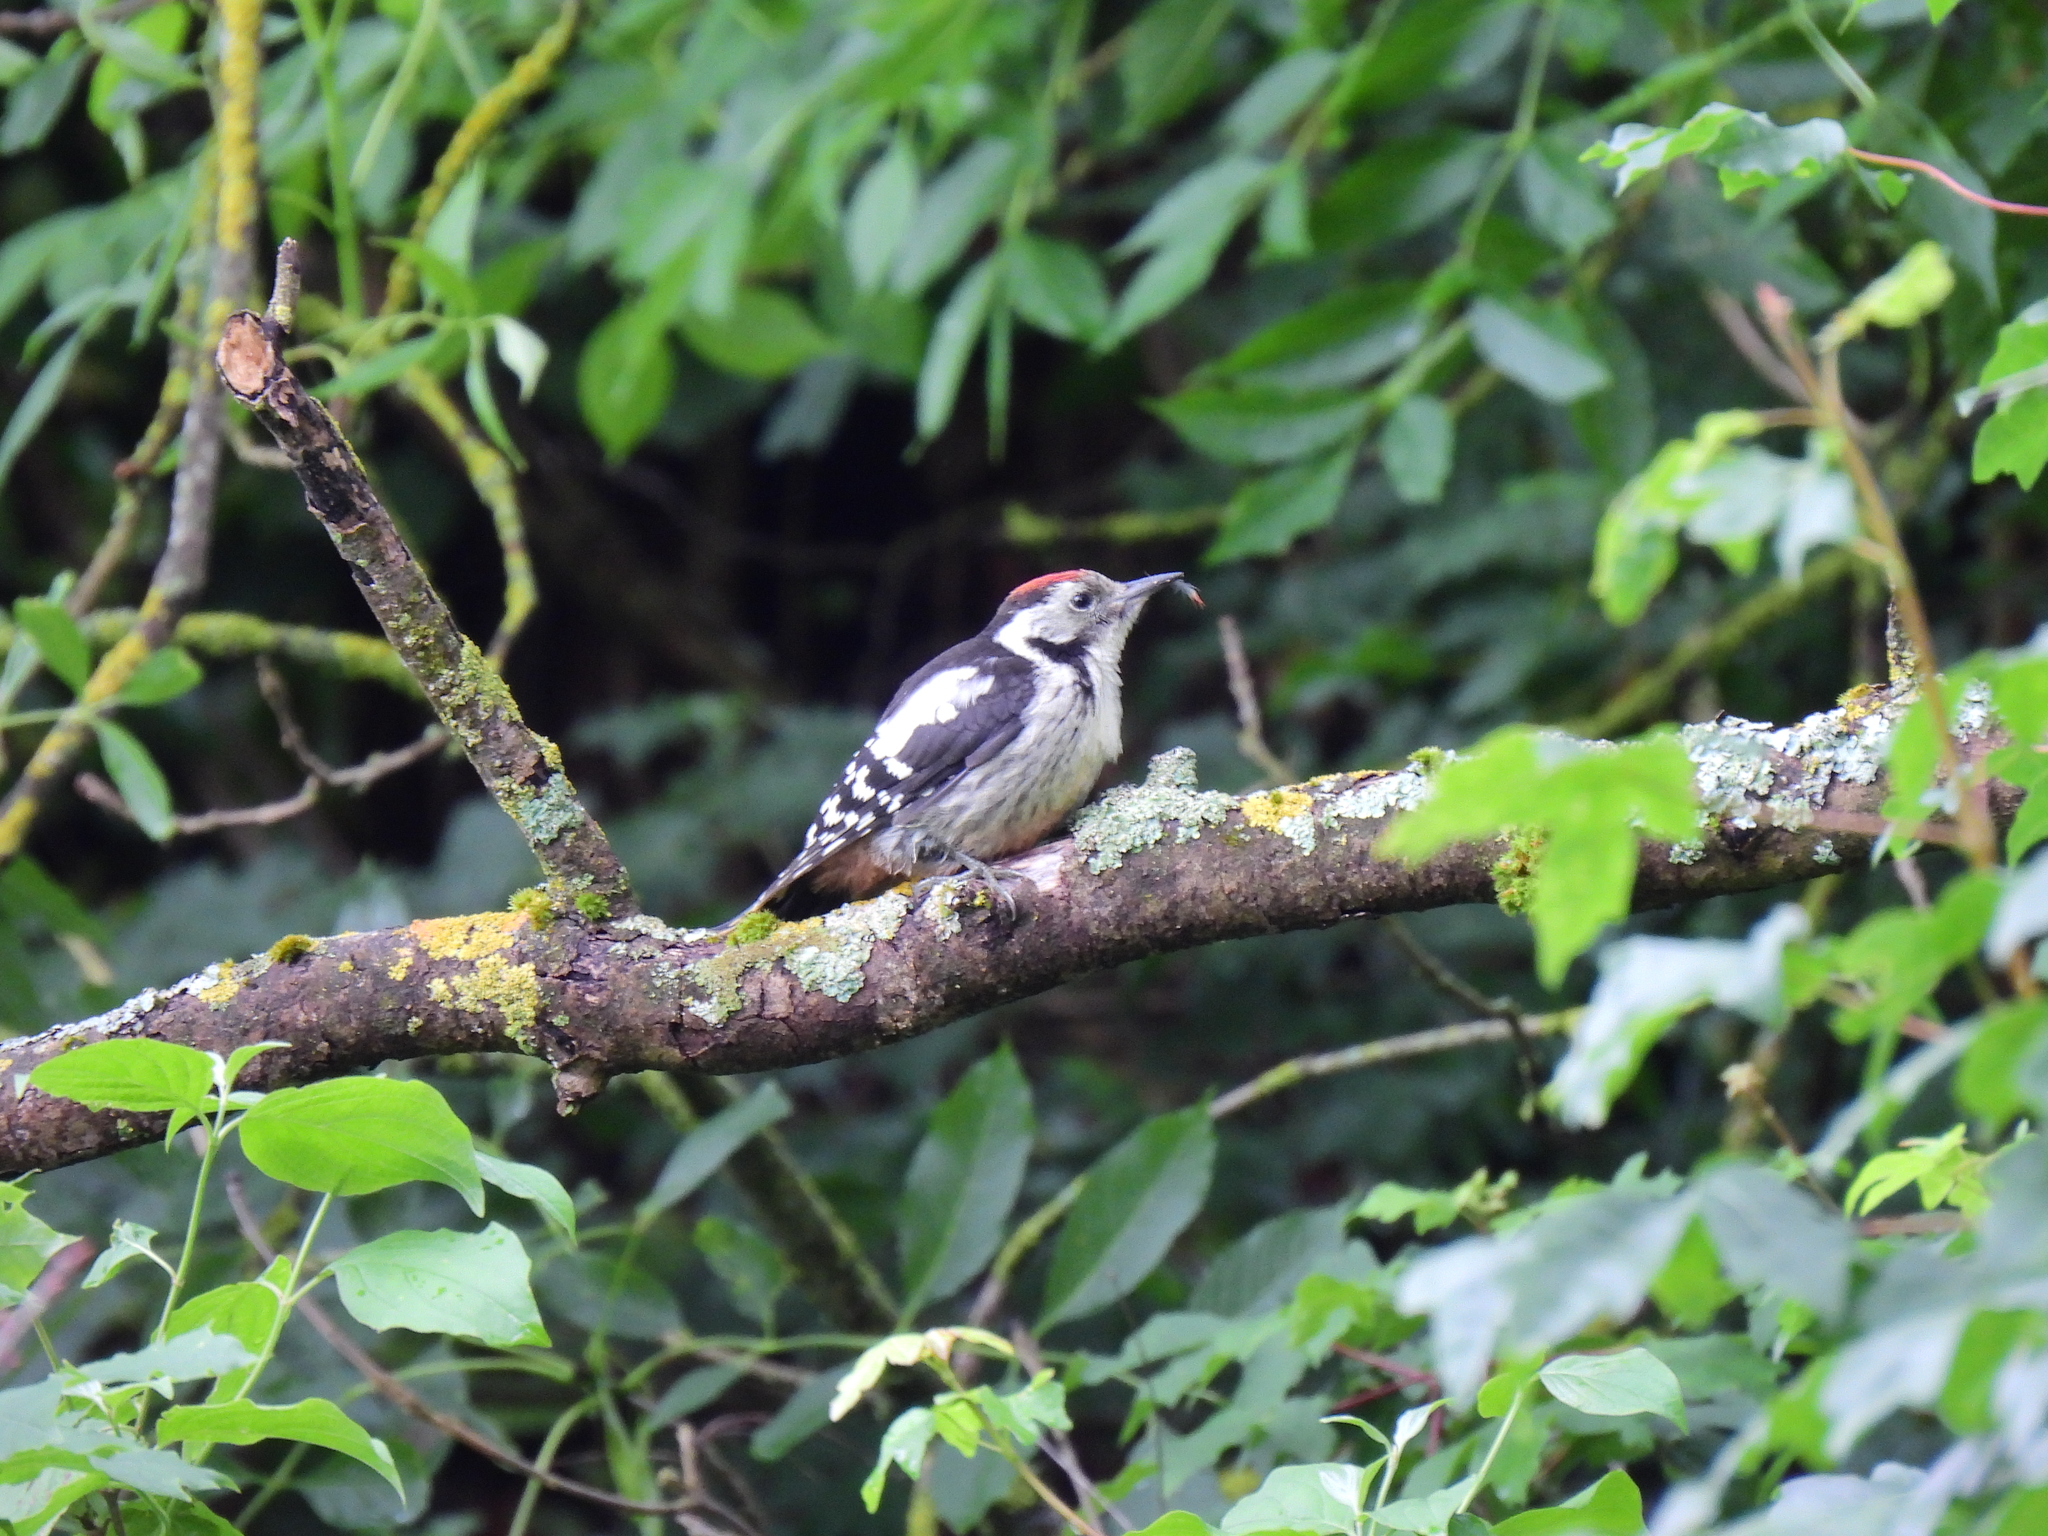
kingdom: Animalia
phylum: Chordata
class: Aves
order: Piciformes
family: Picidae
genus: Dendrocoptes
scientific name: Dendrocoptes medius
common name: Middle spotted woodpecker
